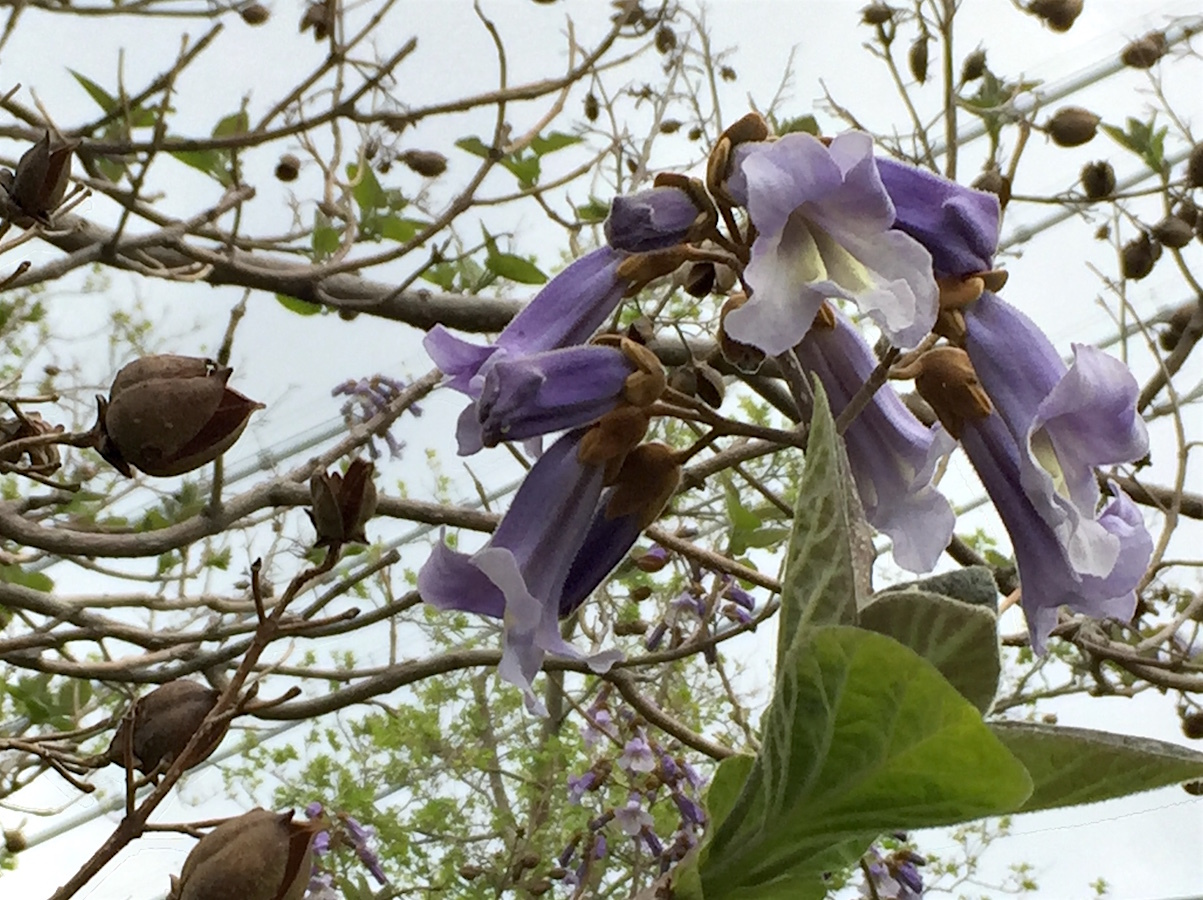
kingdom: Plantae
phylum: Tracheophyta
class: Magnoliopsida
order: Lamiales
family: Paulowniaceae
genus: Paulownia
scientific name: Paulownia tomentosa
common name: Foxglove-tree
